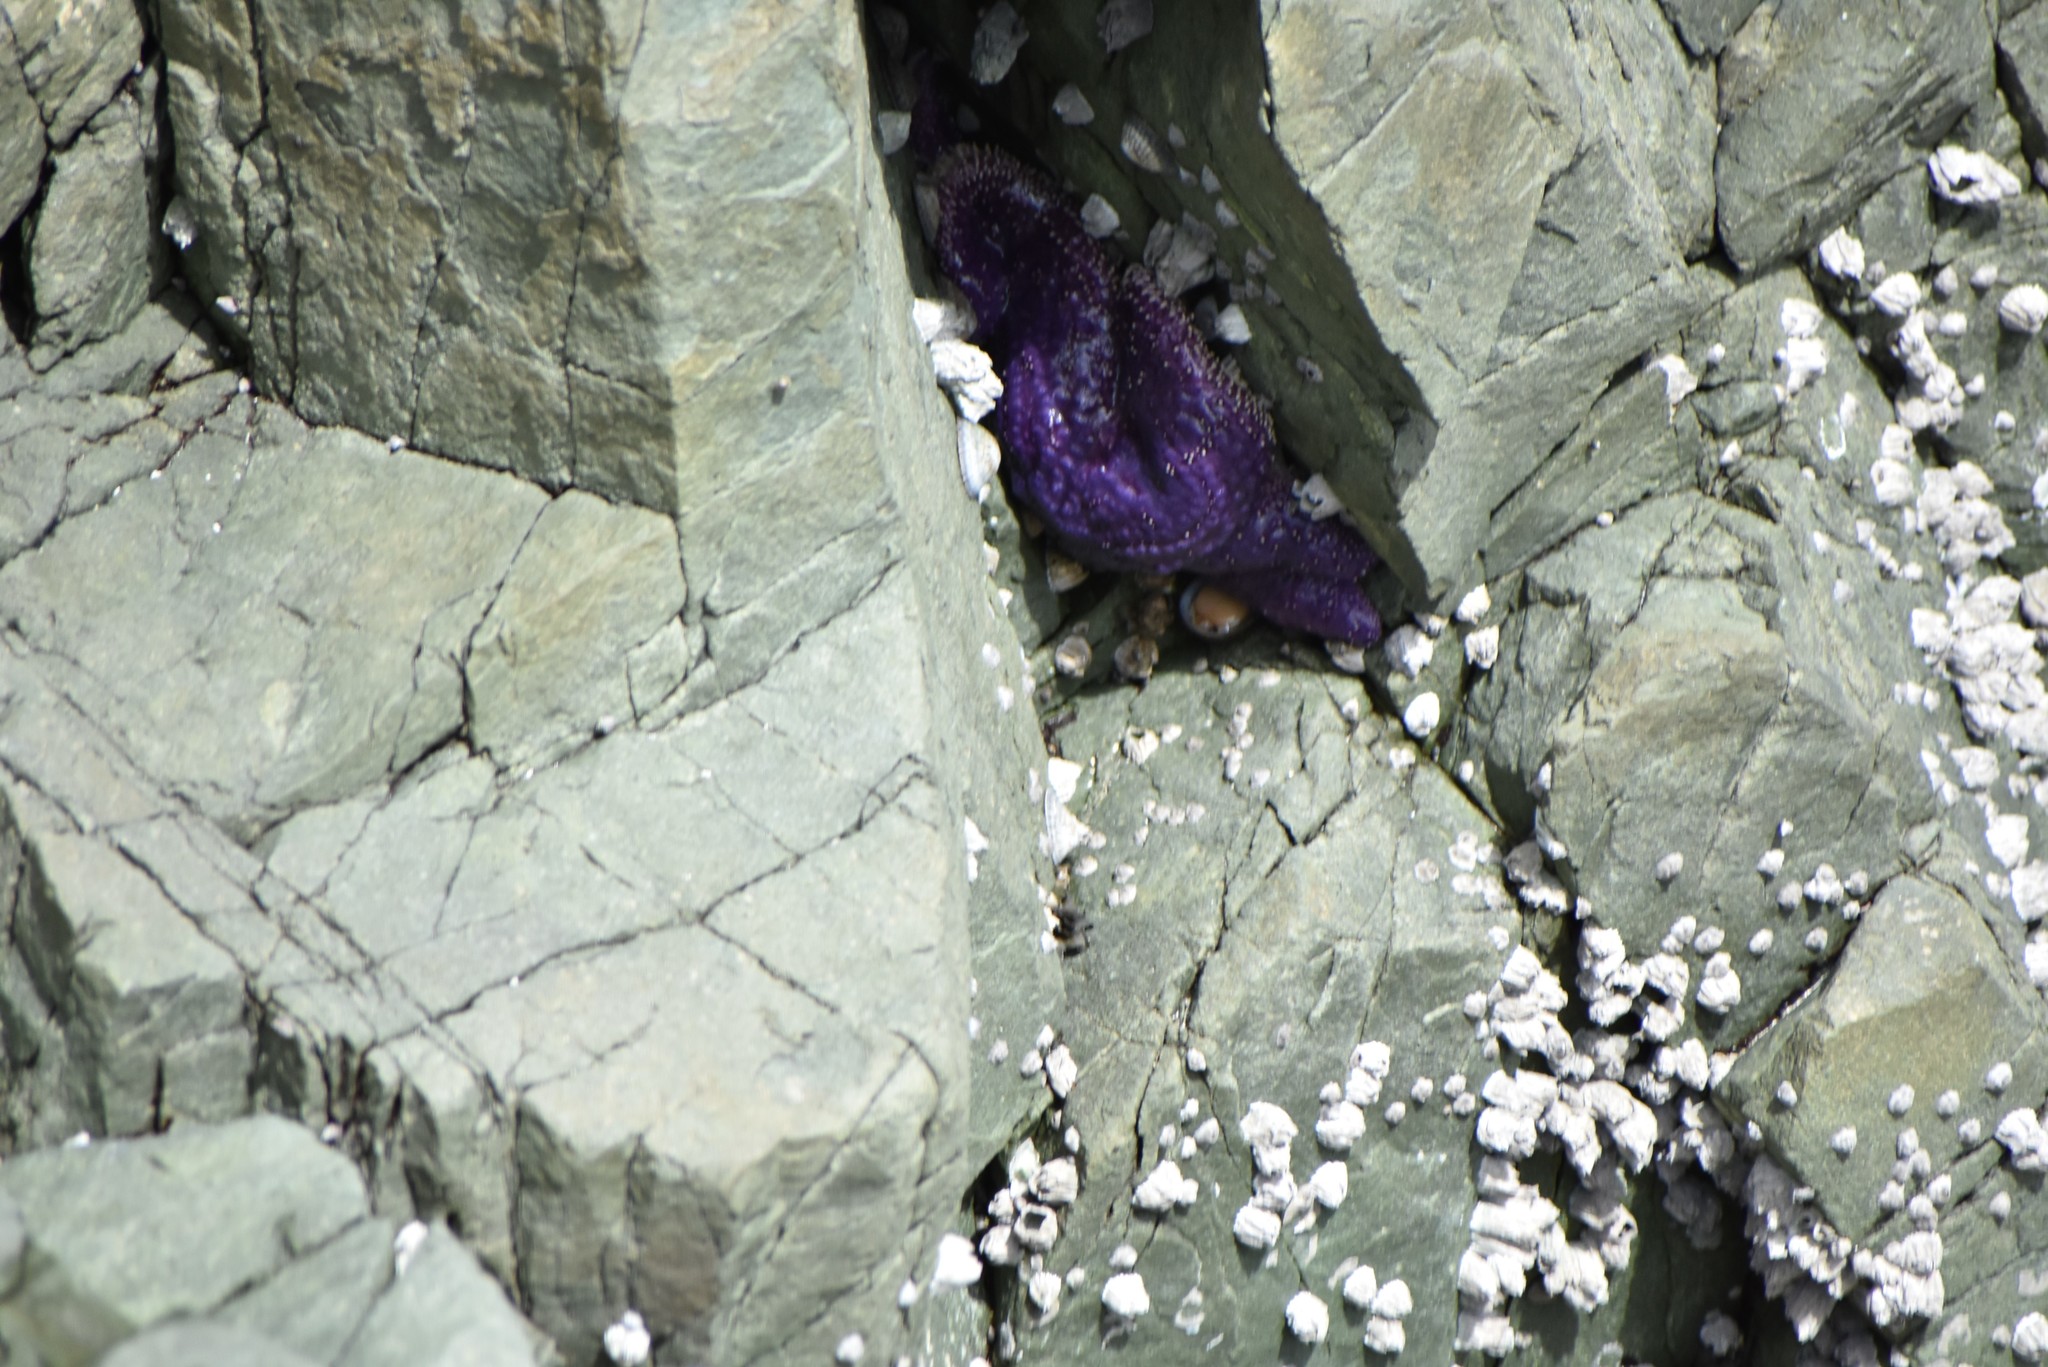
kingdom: Animalia
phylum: Echinodermata
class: Asteroidea
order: Forcipulatida
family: Asteriidae
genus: Pisaster
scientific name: Pisaster ochraceus
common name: Ochre stars
